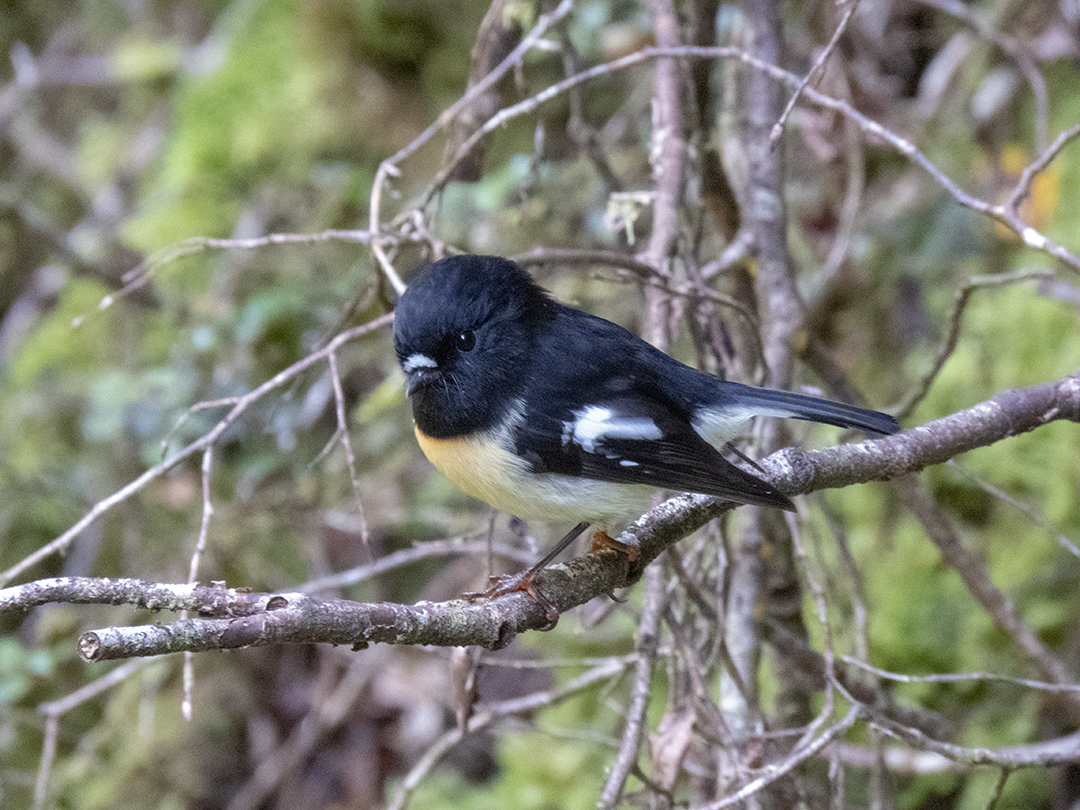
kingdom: Animalia
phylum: Chordata
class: Aves
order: Passeriformes
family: Petroicidae
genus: Petroica
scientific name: Petroica macrocephala
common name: Tomtit
